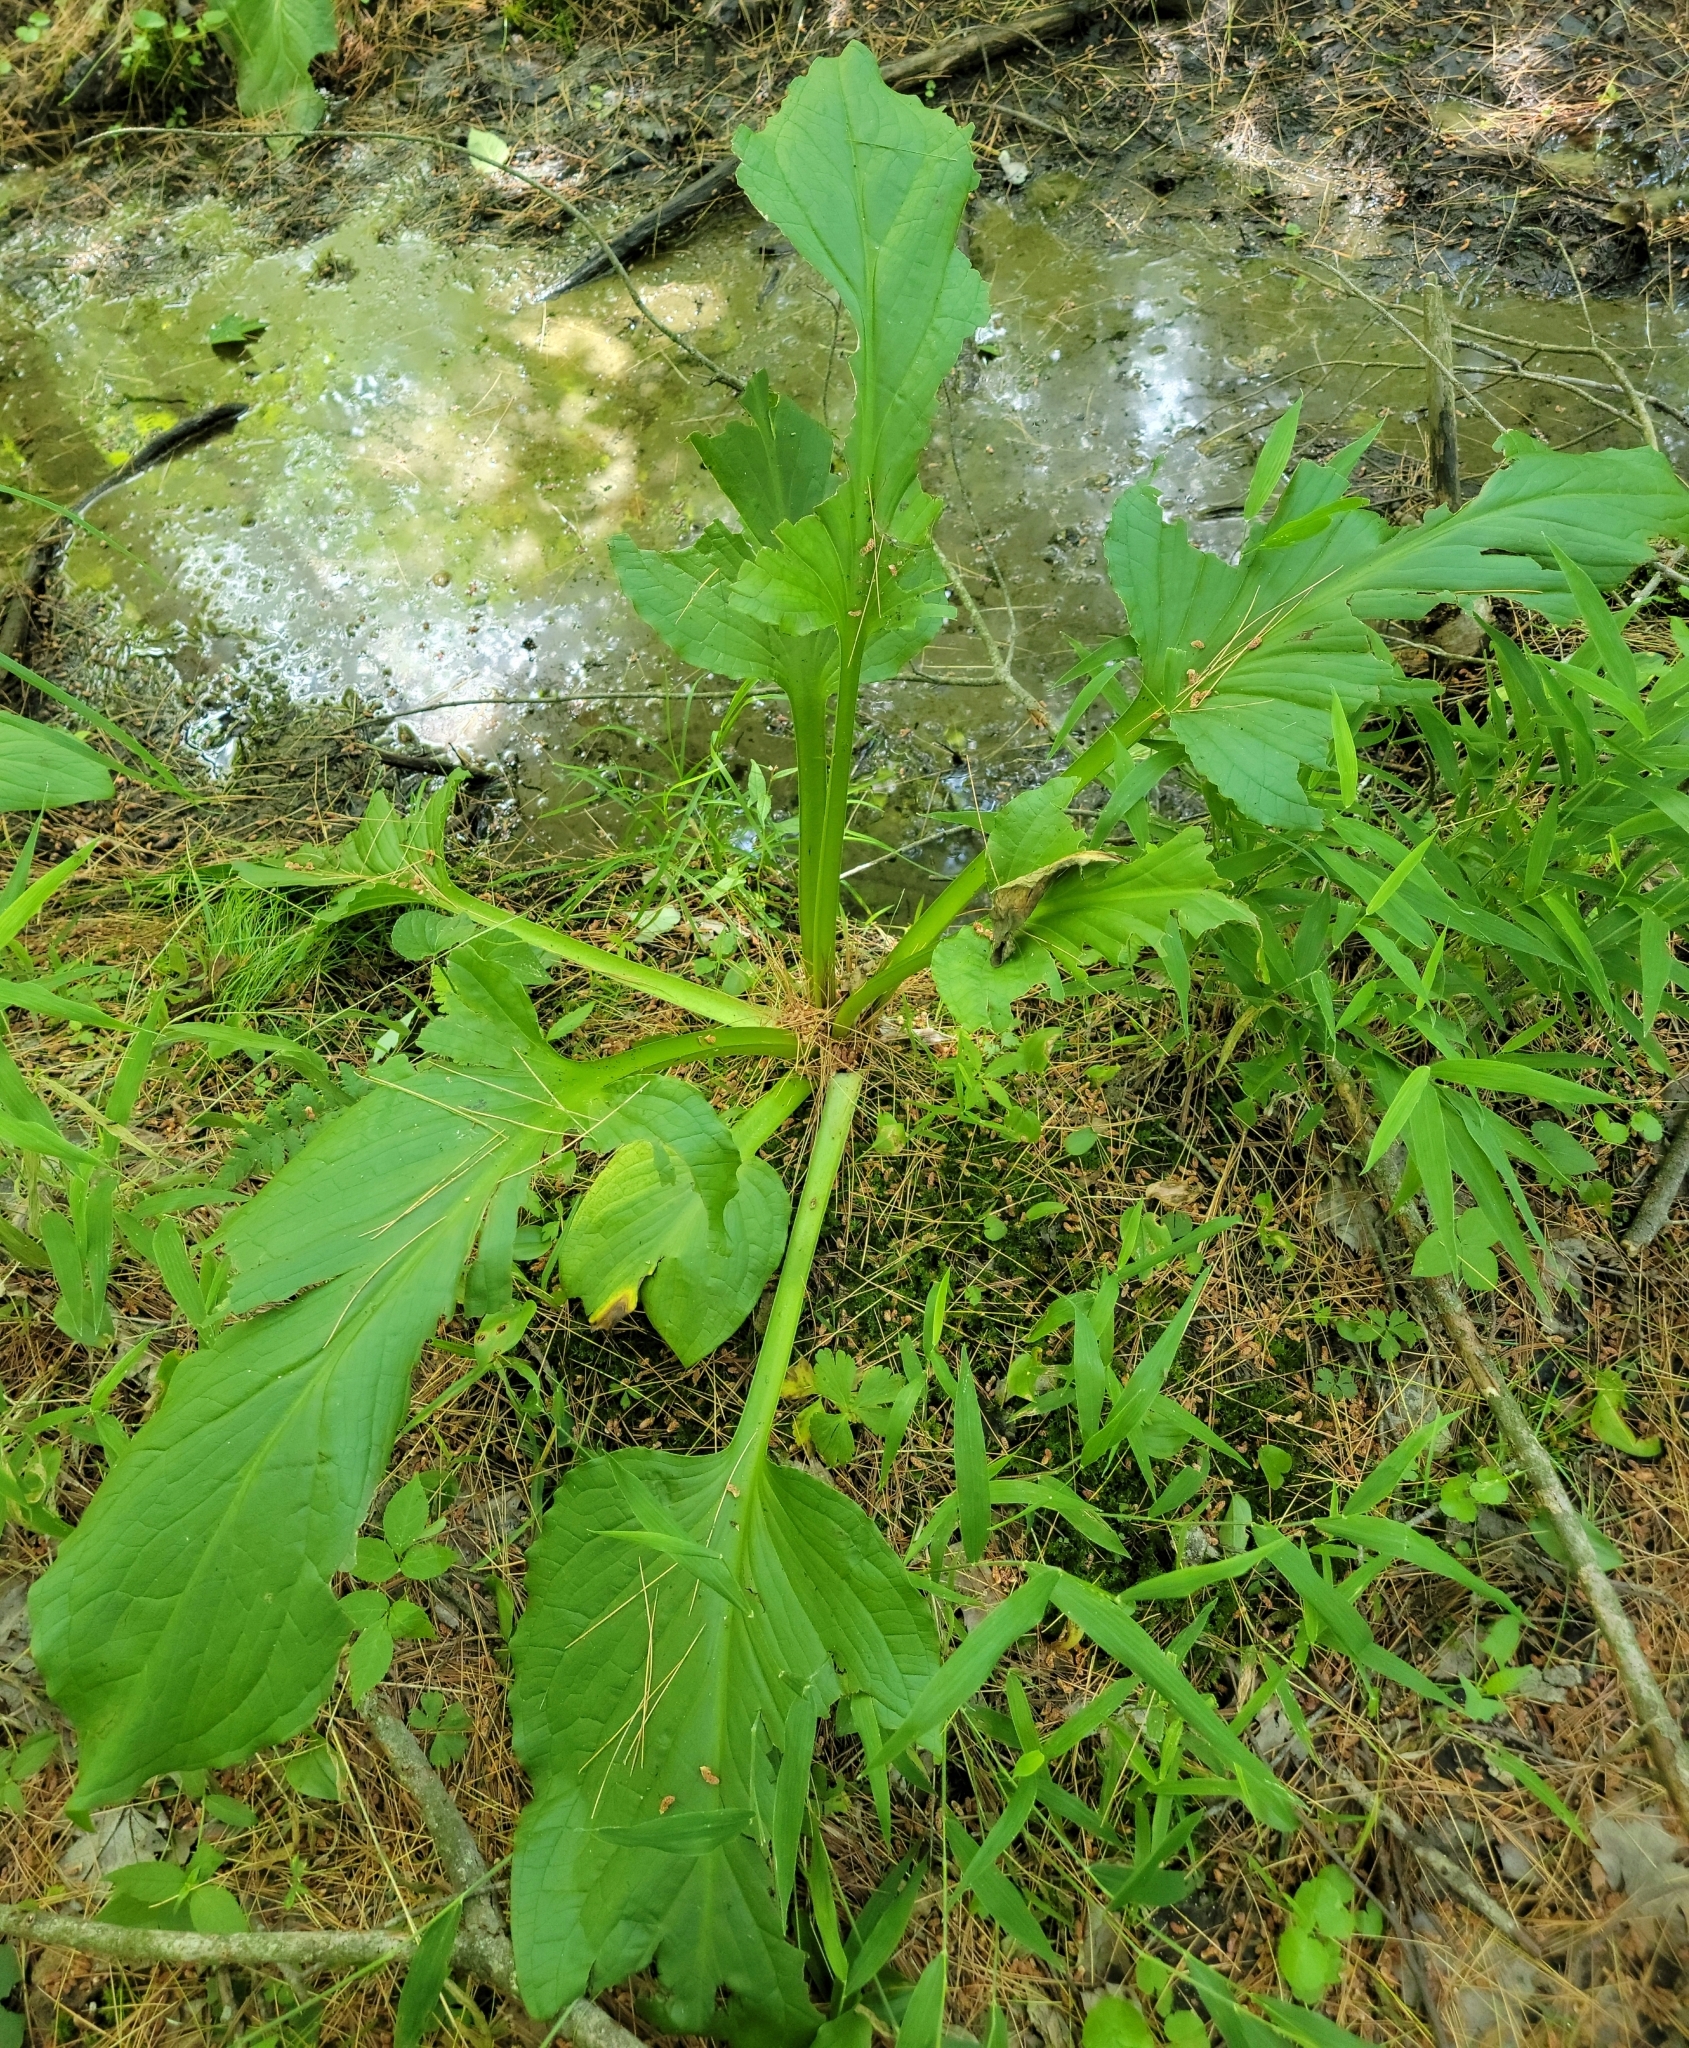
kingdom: Plantae
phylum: Tracheophyta
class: Liliopsida
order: Alismatales
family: Araceae
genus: Symplocarpus
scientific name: Symplocarpus foetidus
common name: Eastern skunk cabbage
